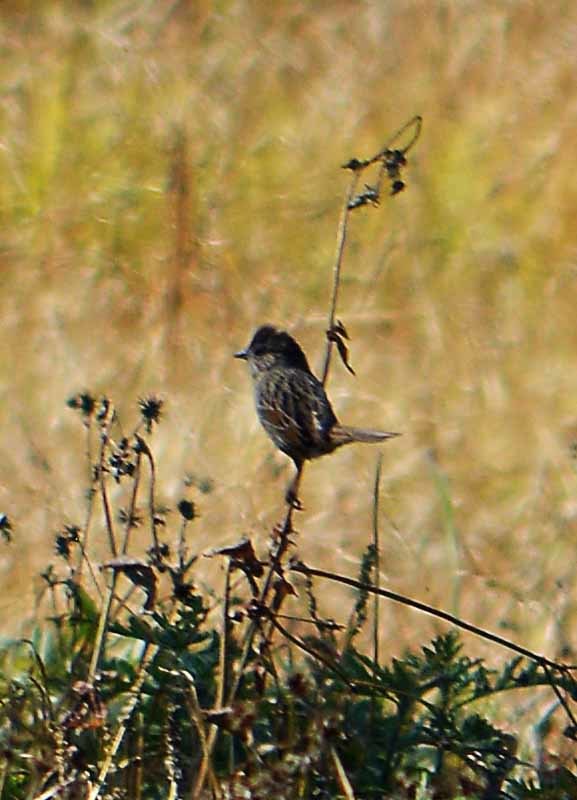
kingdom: Animalia
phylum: Chordata
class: Aves
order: Passeriformes
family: Passerellidae
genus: Melospiza
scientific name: Melospiza melodia
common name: Song sparrow
